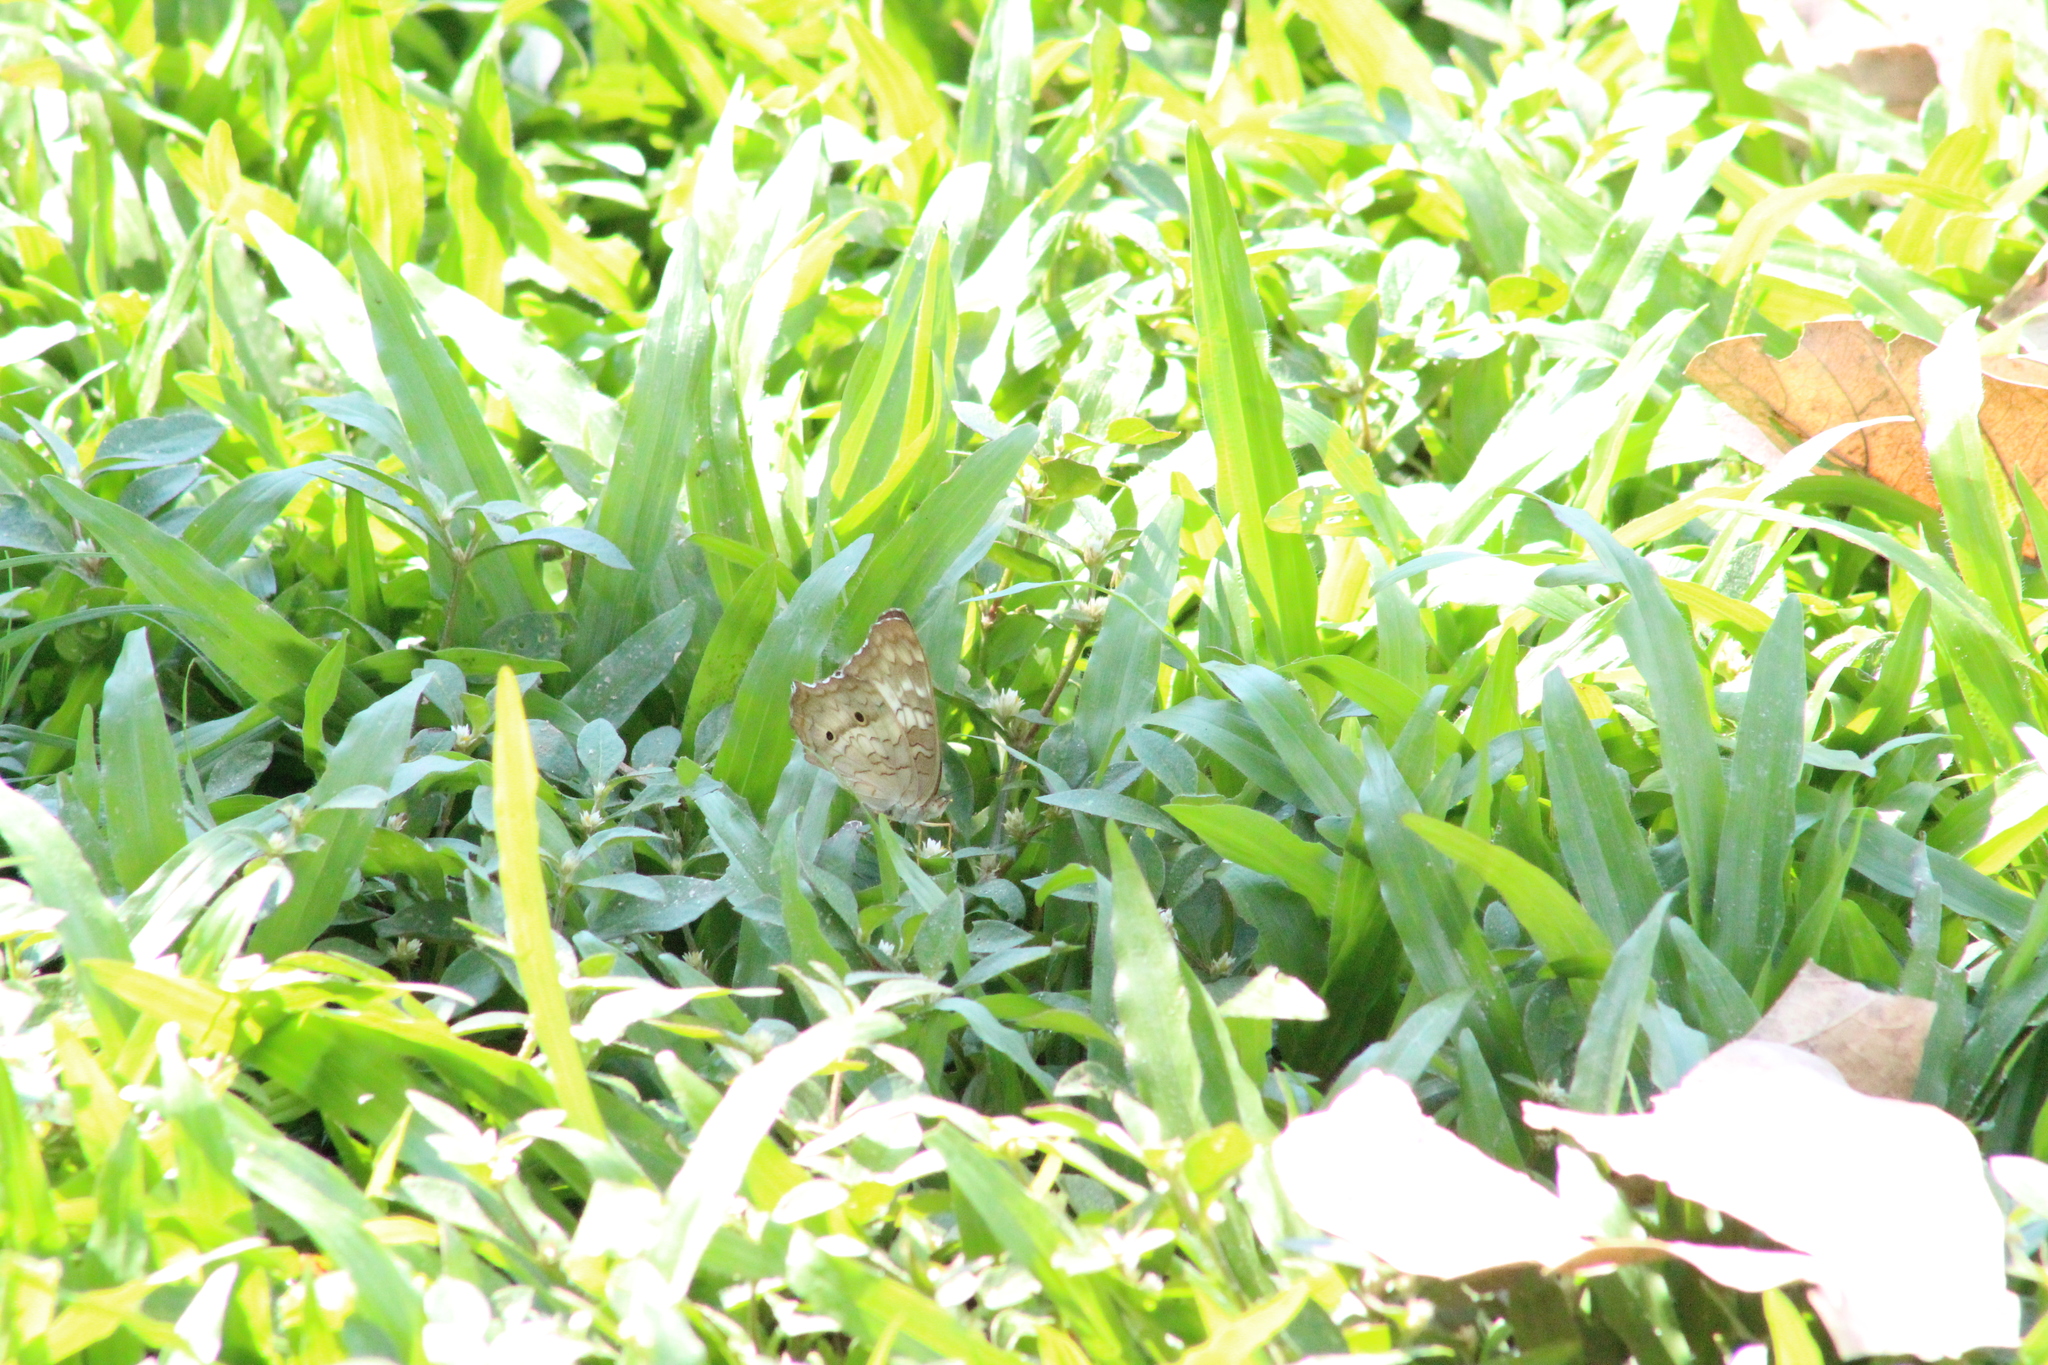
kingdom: Animalia
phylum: Arthropoda
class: Insecta
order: Lepidoptera
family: Nymphalidae
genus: Anartia
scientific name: Anartia jatrophae
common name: White peacock
